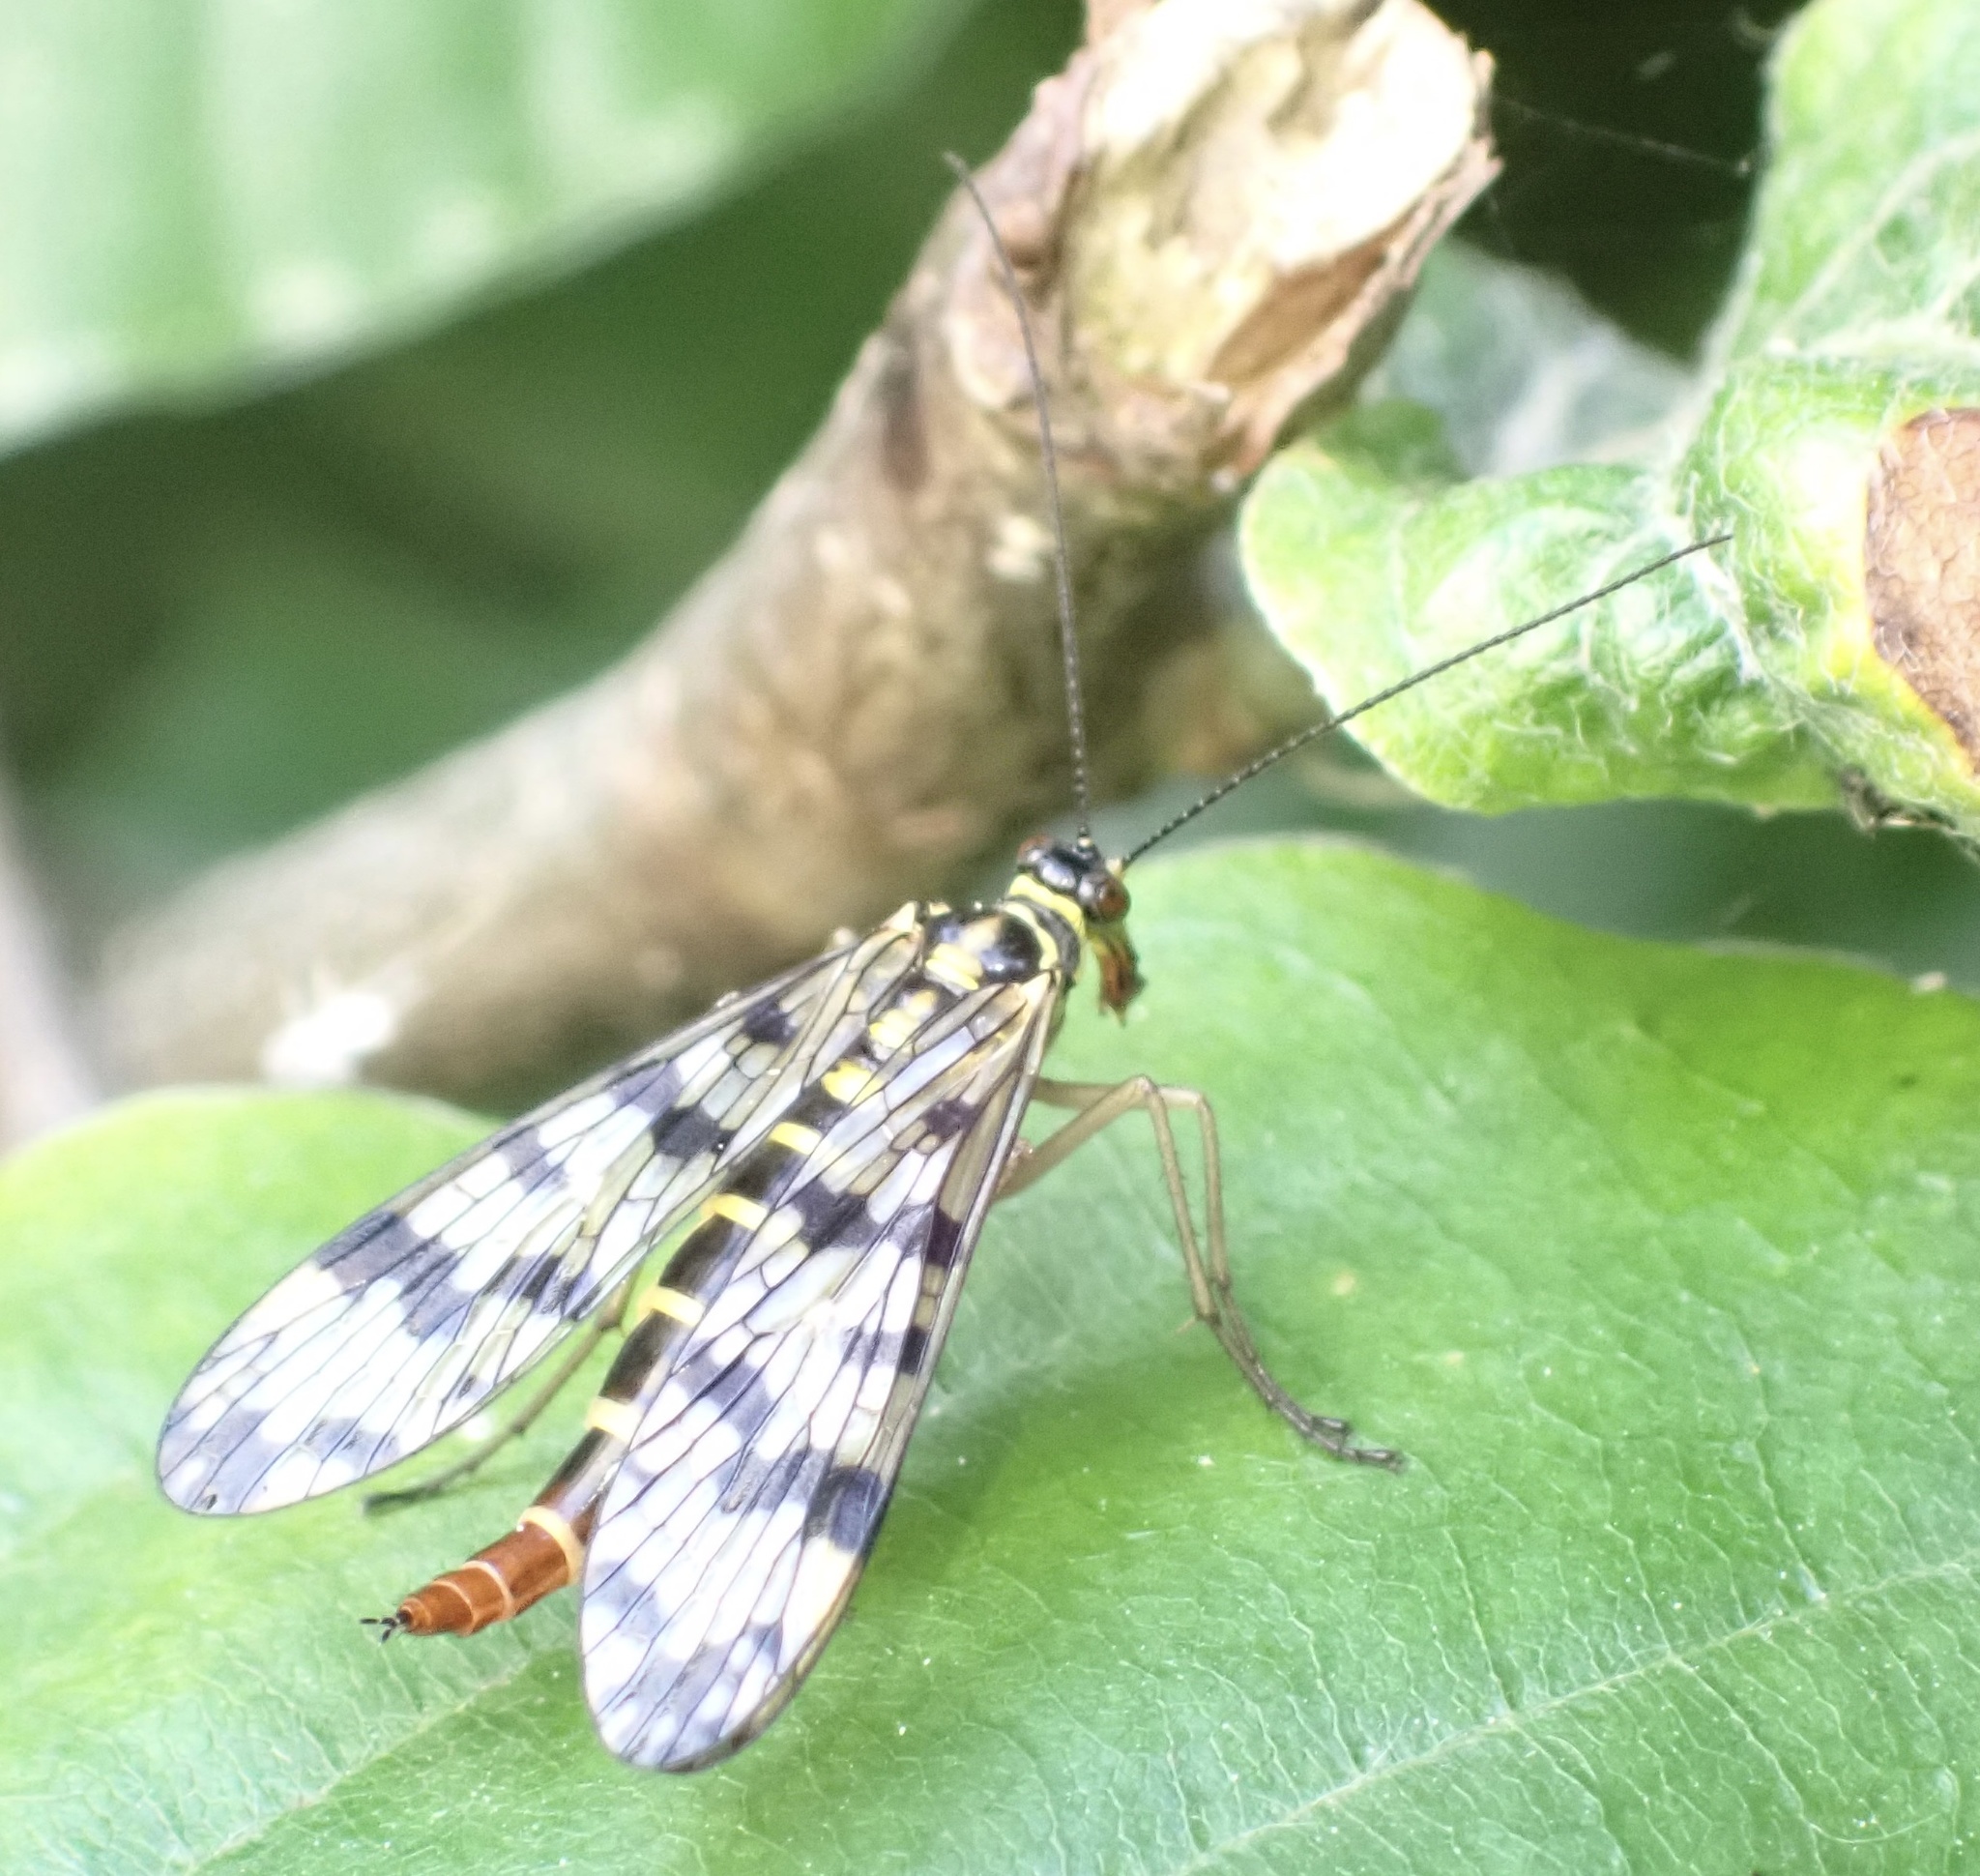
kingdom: Animalia
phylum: Arthropoda
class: Insecta
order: Mecoptera
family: Panorpidae
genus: Panorpa
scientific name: Panorpa communis
